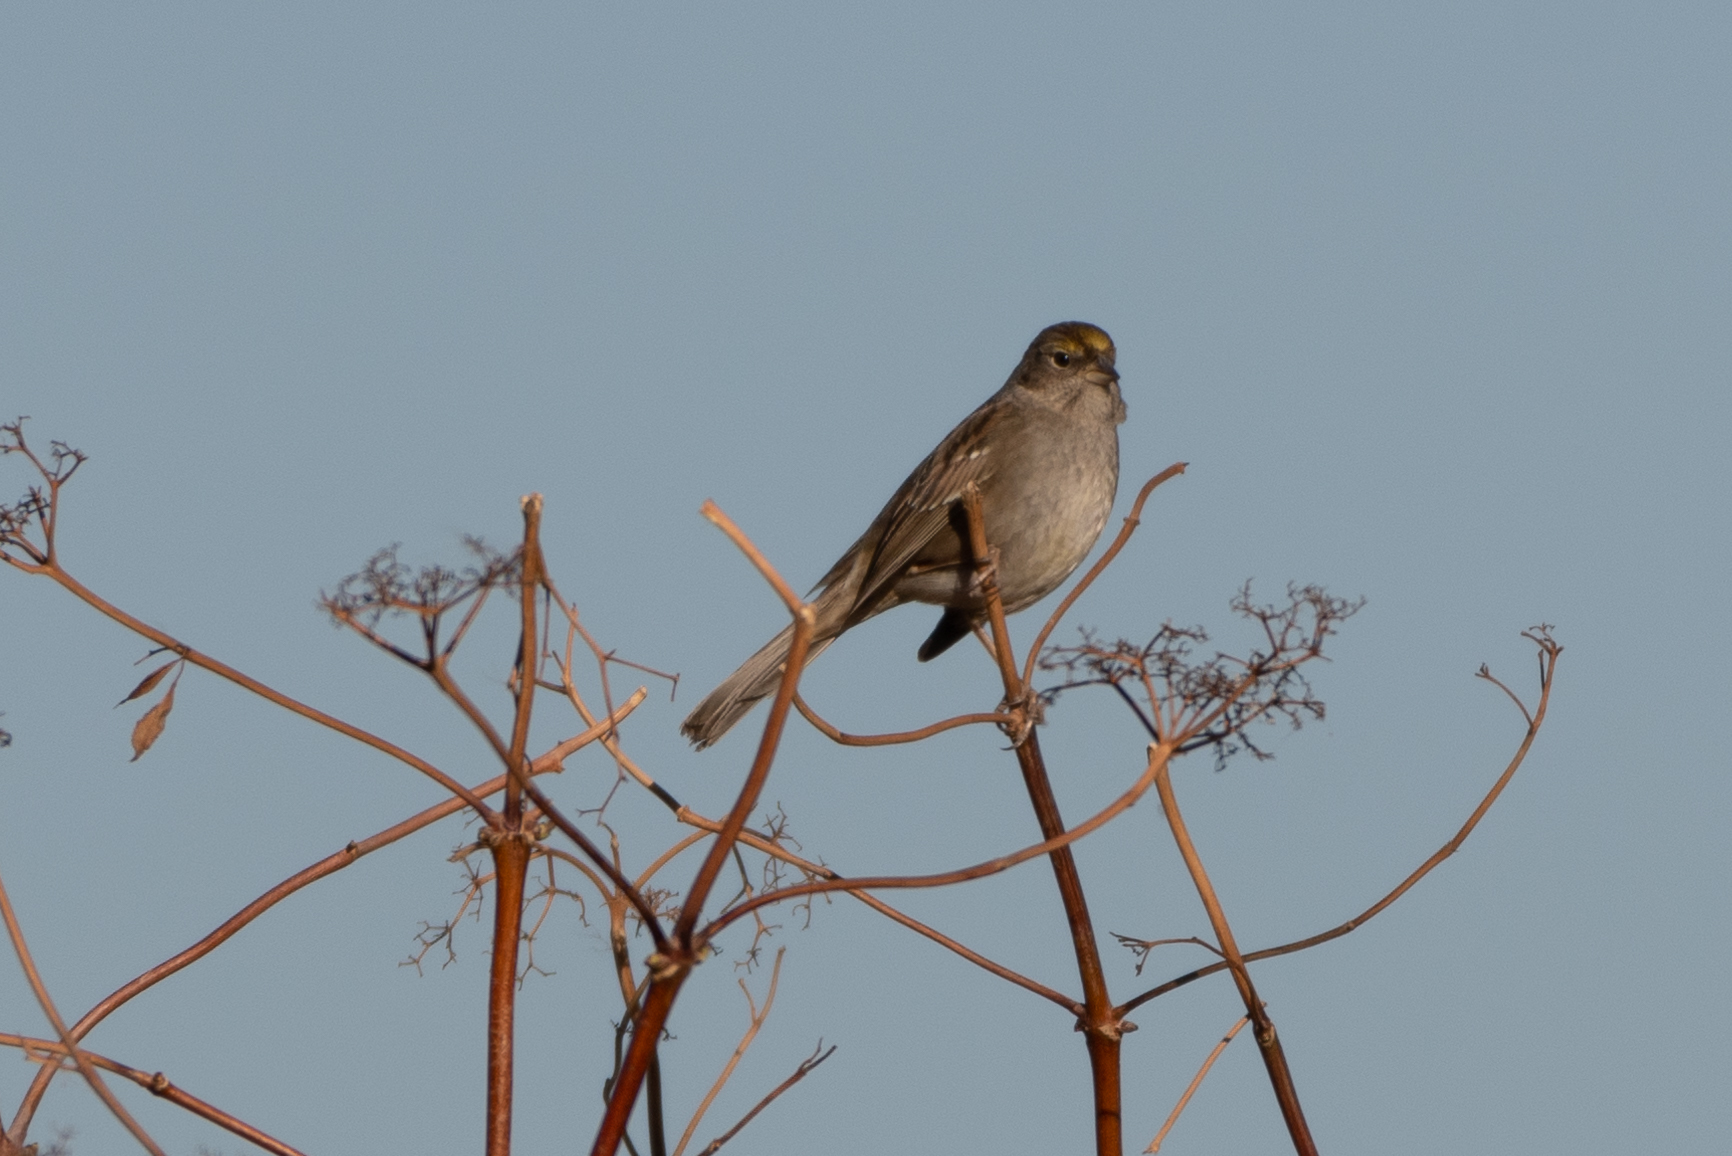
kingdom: Animalia
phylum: Chordata
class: Aves
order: Passeriformes
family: Passerellidae
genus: Zonotrichia
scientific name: Zonotrichia atricapilla
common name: Golden-crowned sparrow
